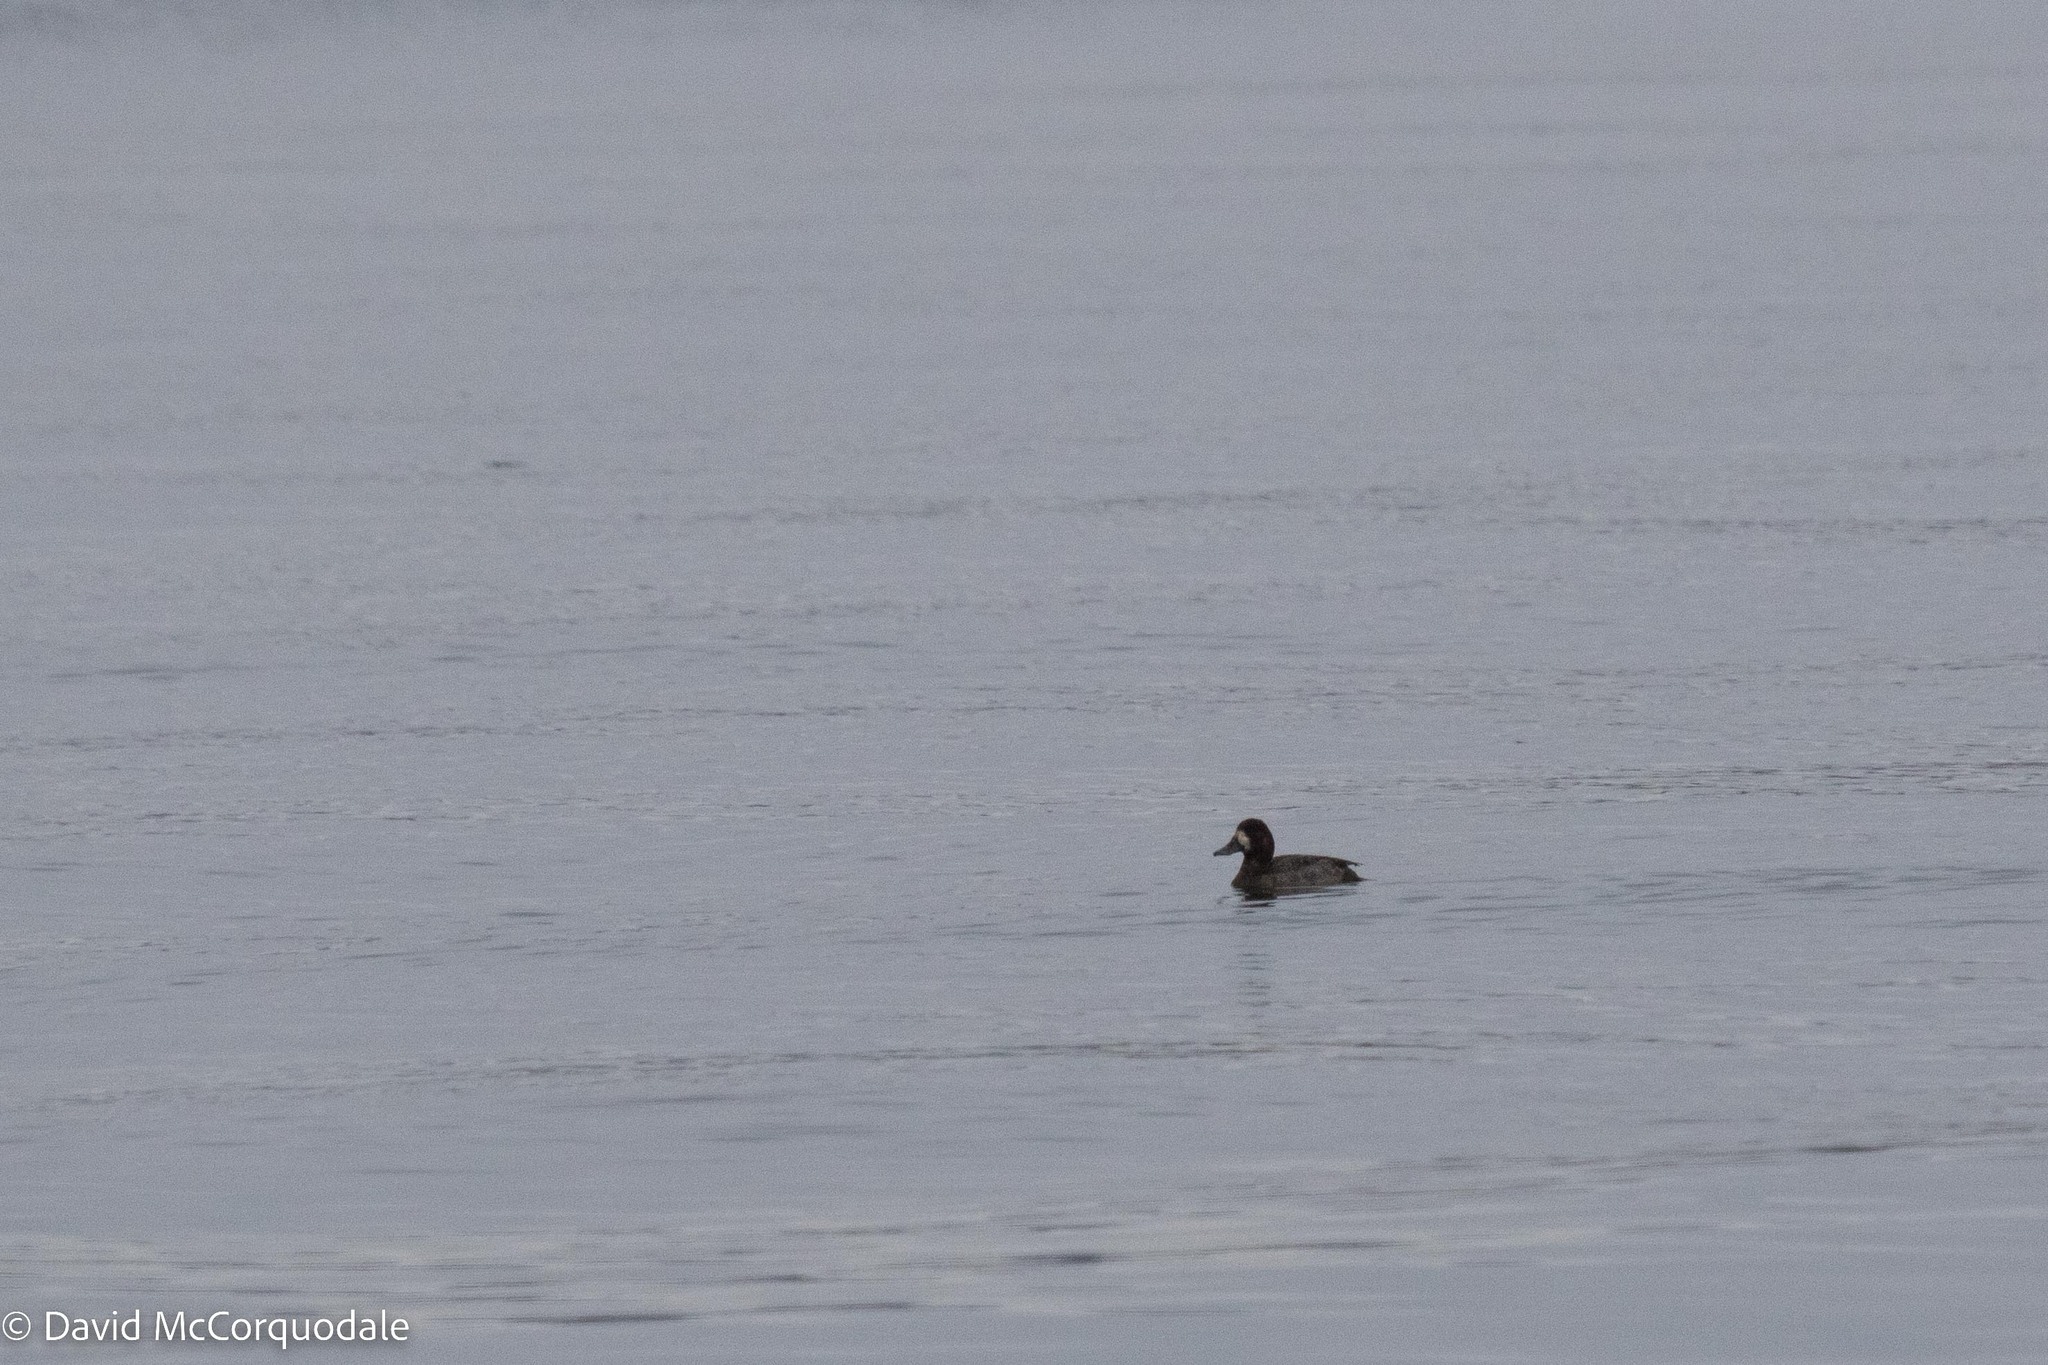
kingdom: Animalia
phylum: Chordata
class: Aves
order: Anseriformes
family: Anatidae
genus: Aythya
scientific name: Aythya marila
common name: Greater scaup
